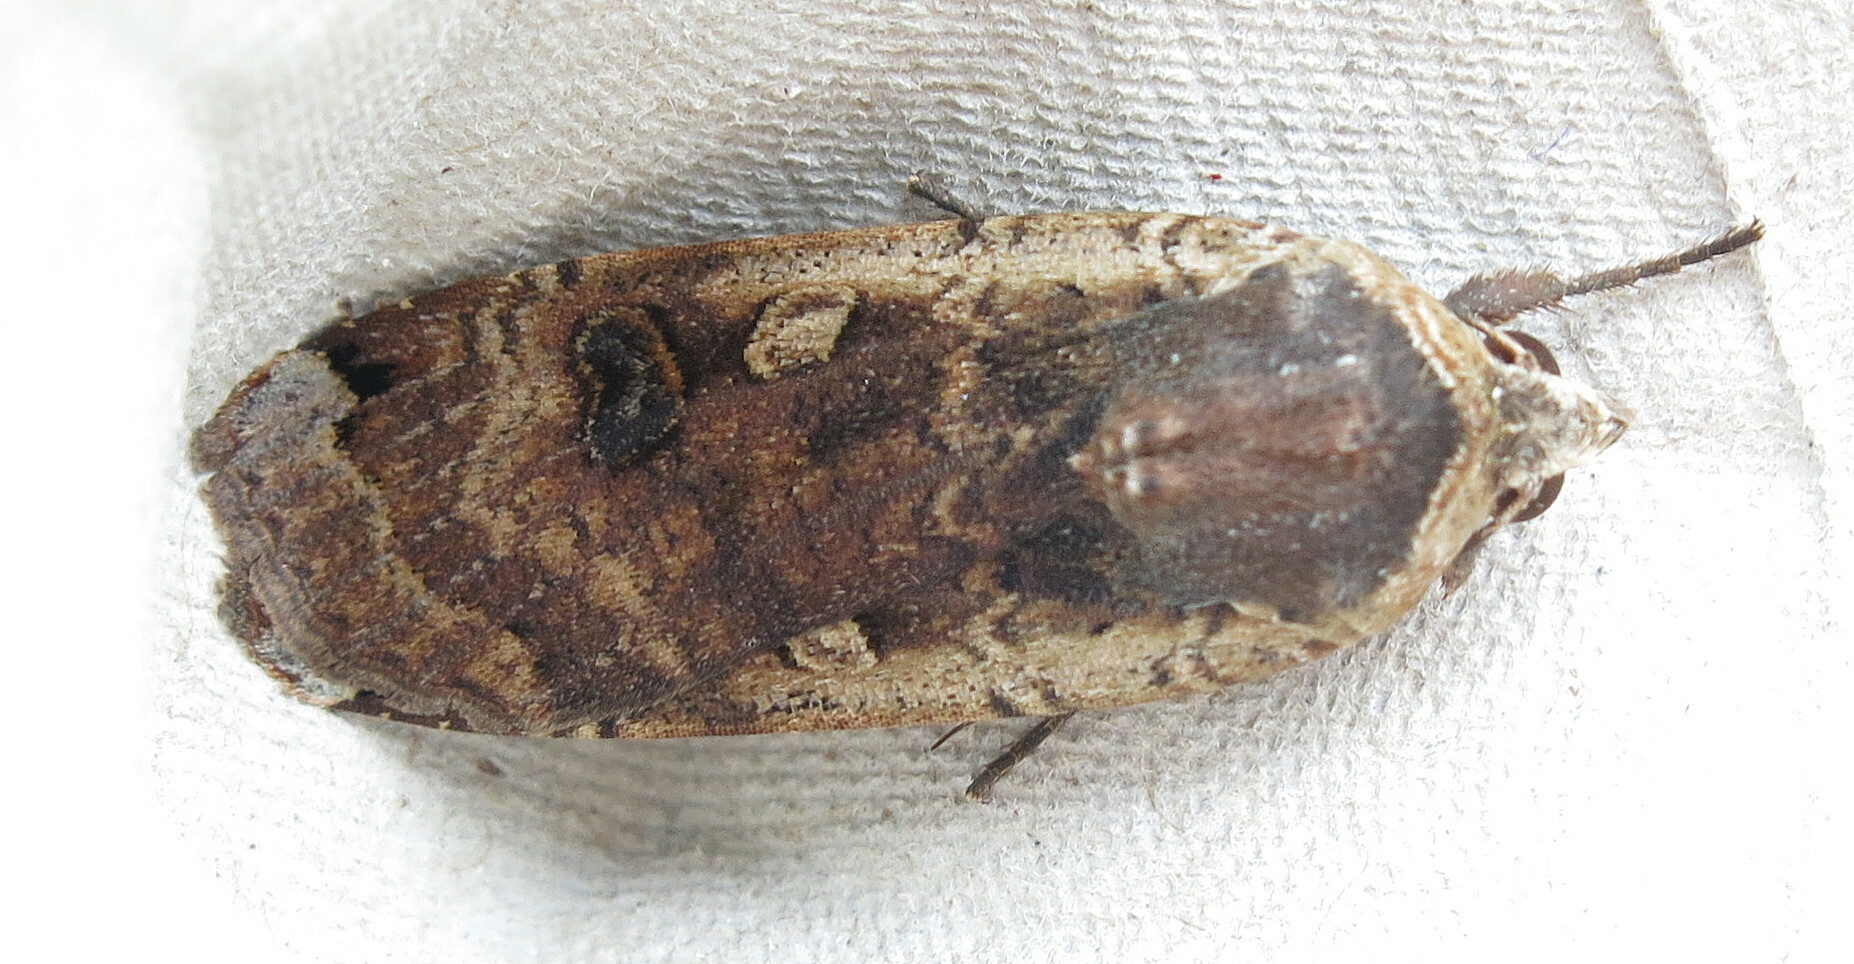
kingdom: Animalia
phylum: Arthropoda
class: Insecta
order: Lepidoptera
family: Noctuidae
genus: Noctua
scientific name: Noctua pronuba
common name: Large yellow underwing
